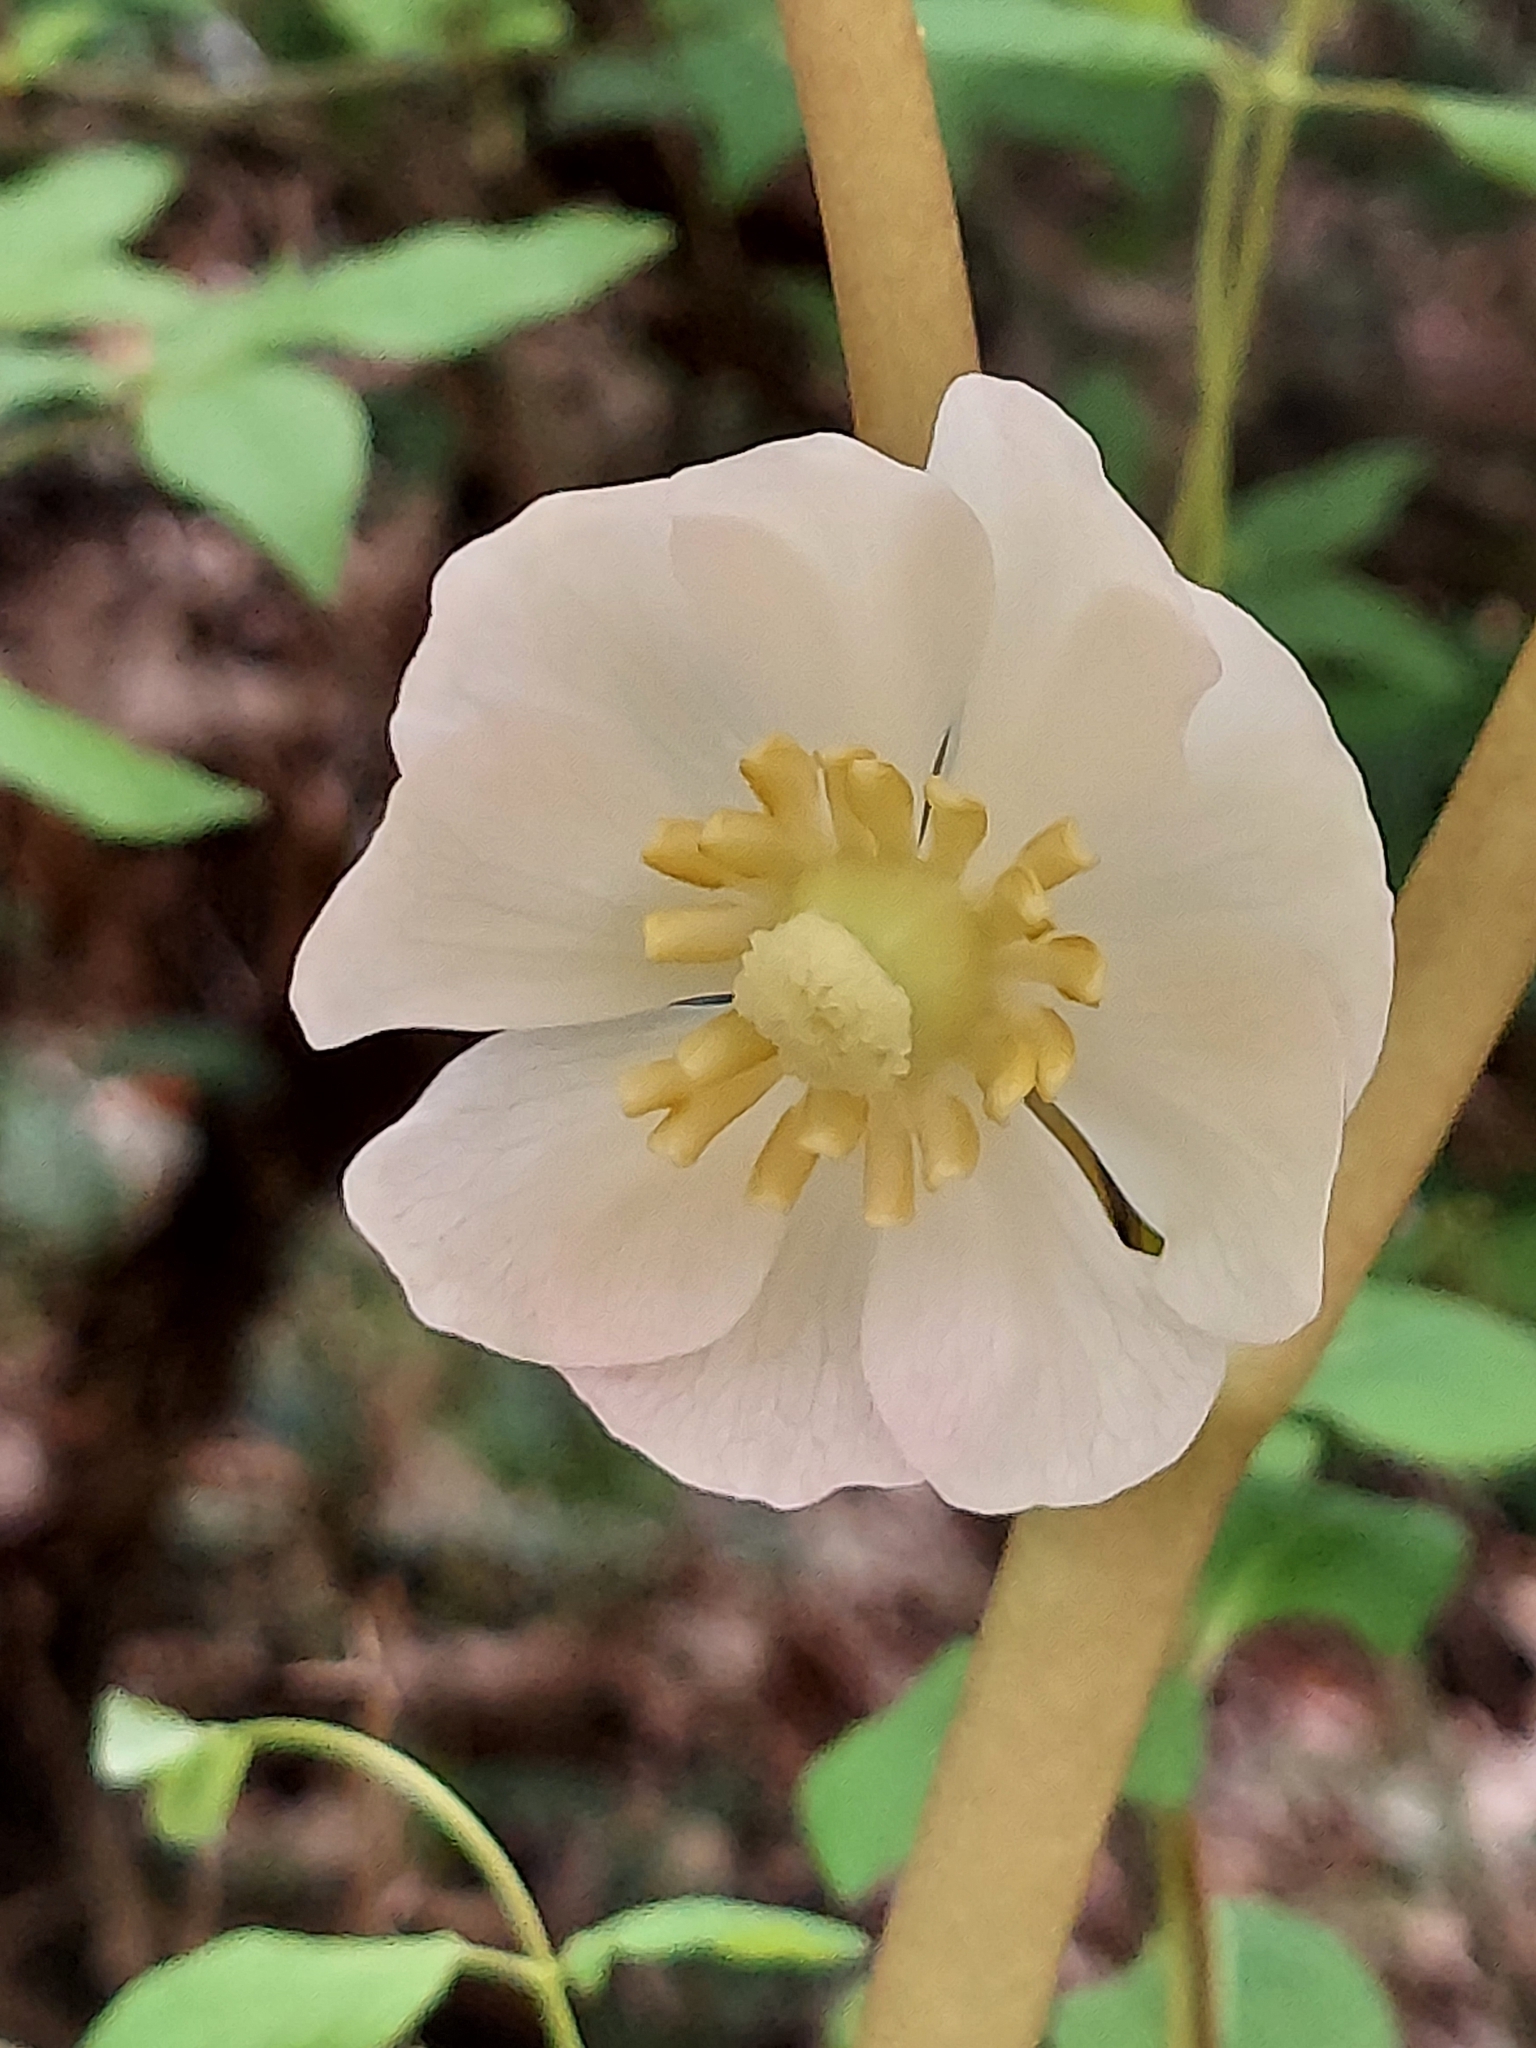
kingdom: Plantae
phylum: Tracheophyta
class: Magnoliopsida
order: Ranunculales
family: Berberidaceae
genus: Podophyllum
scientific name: Podophyllum peltatum
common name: Wild mandrake
